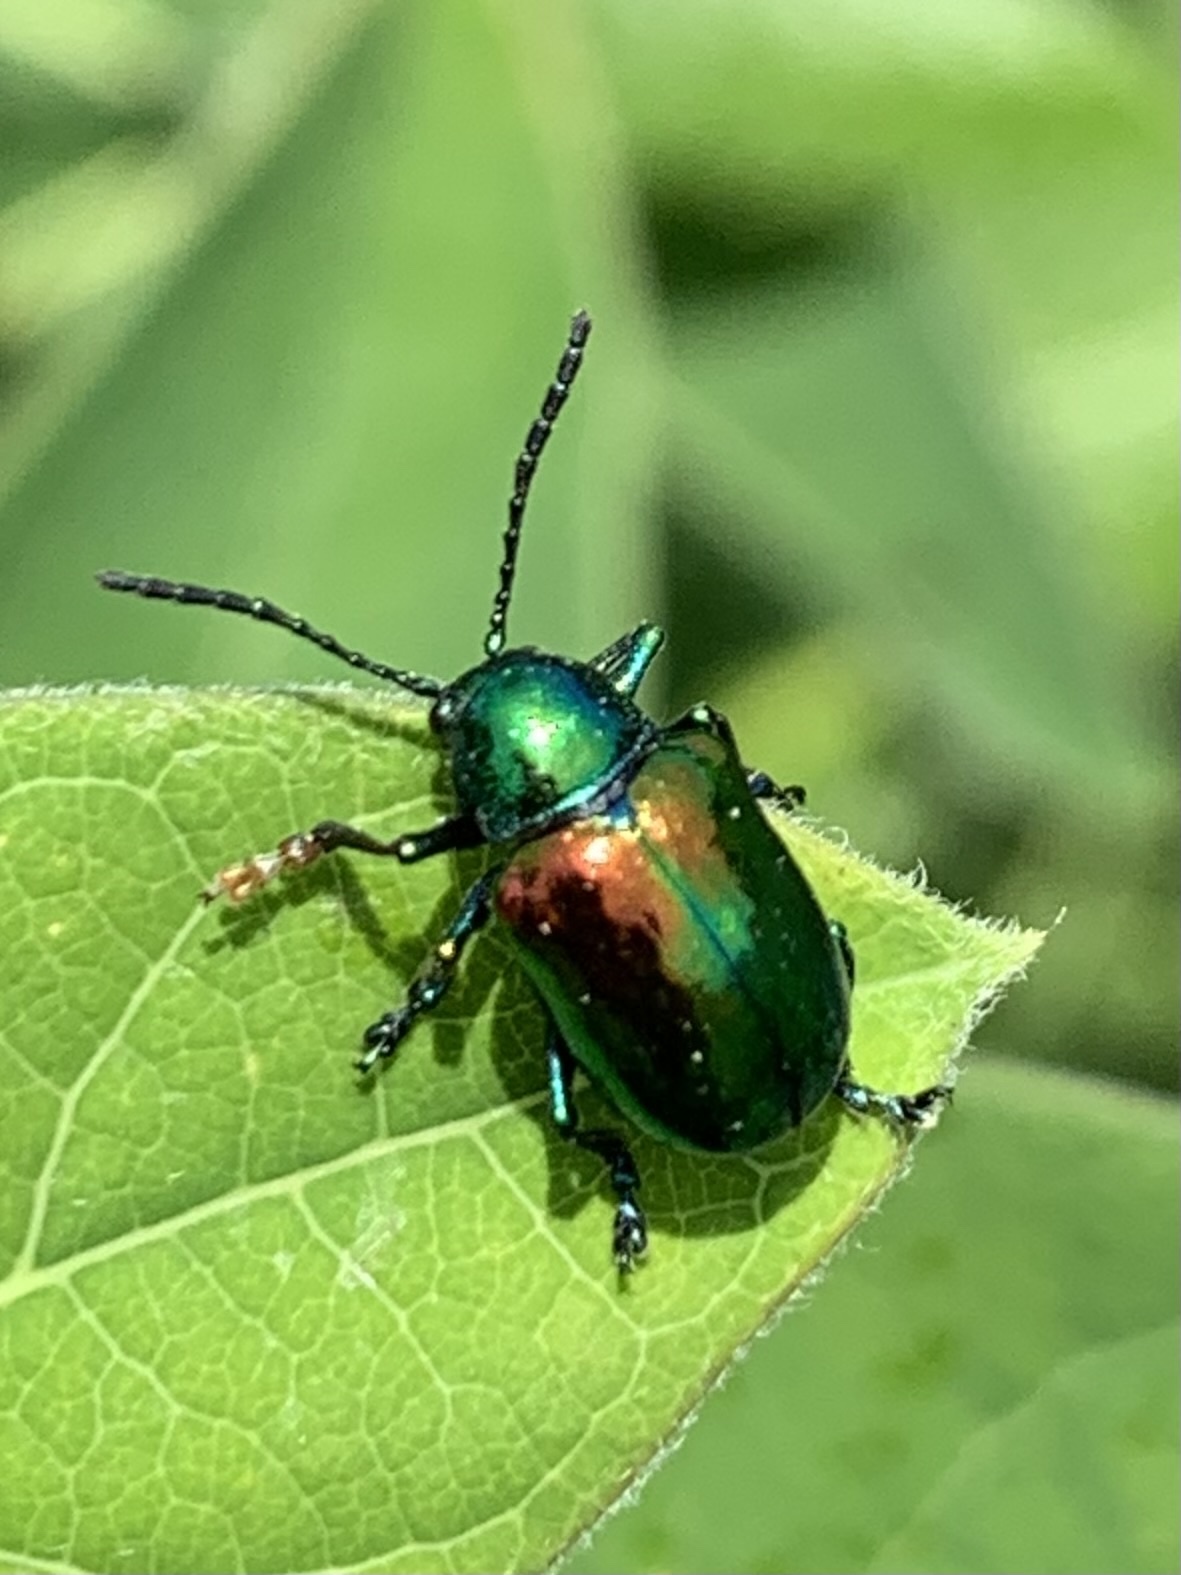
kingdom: Animalia
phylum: Arthropoda
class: Insecta
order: Coleoptera
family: Chrysomelidae
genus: Chrysochus
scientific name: Chrysochus auratus
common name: Dogbane leaf beetle
